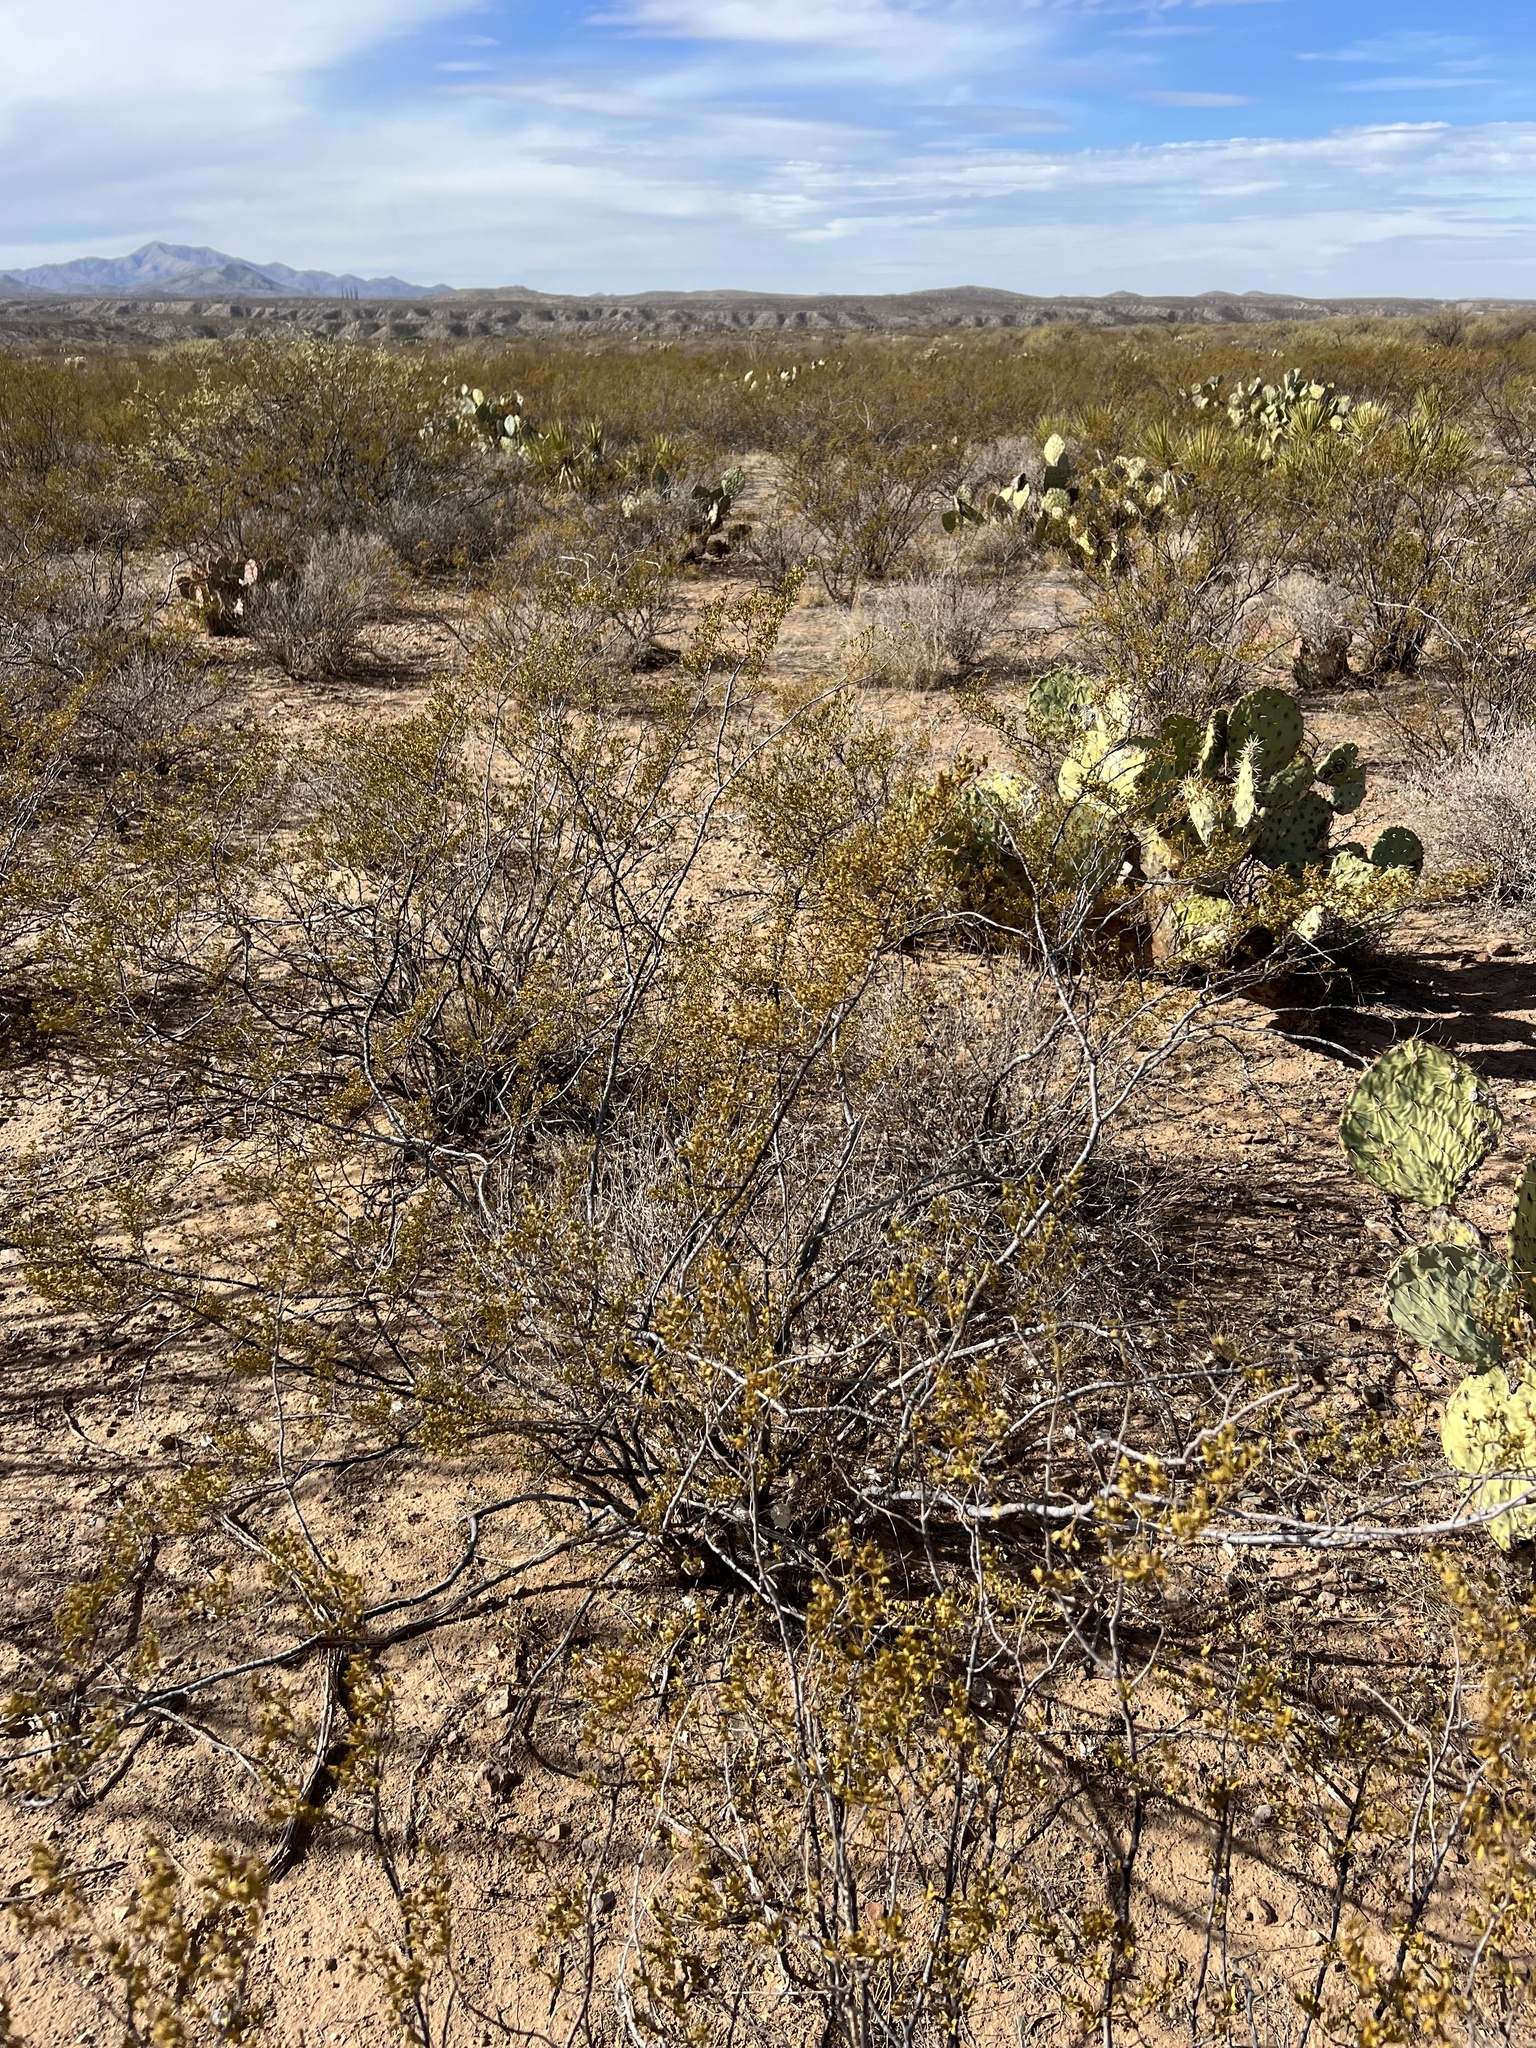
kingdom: Plantae
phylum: Tracheophyta
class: Magnoliopsida
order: Zygophyllales
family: Zygophyllaceae
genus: Larrea
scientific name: Larrea tridentata
